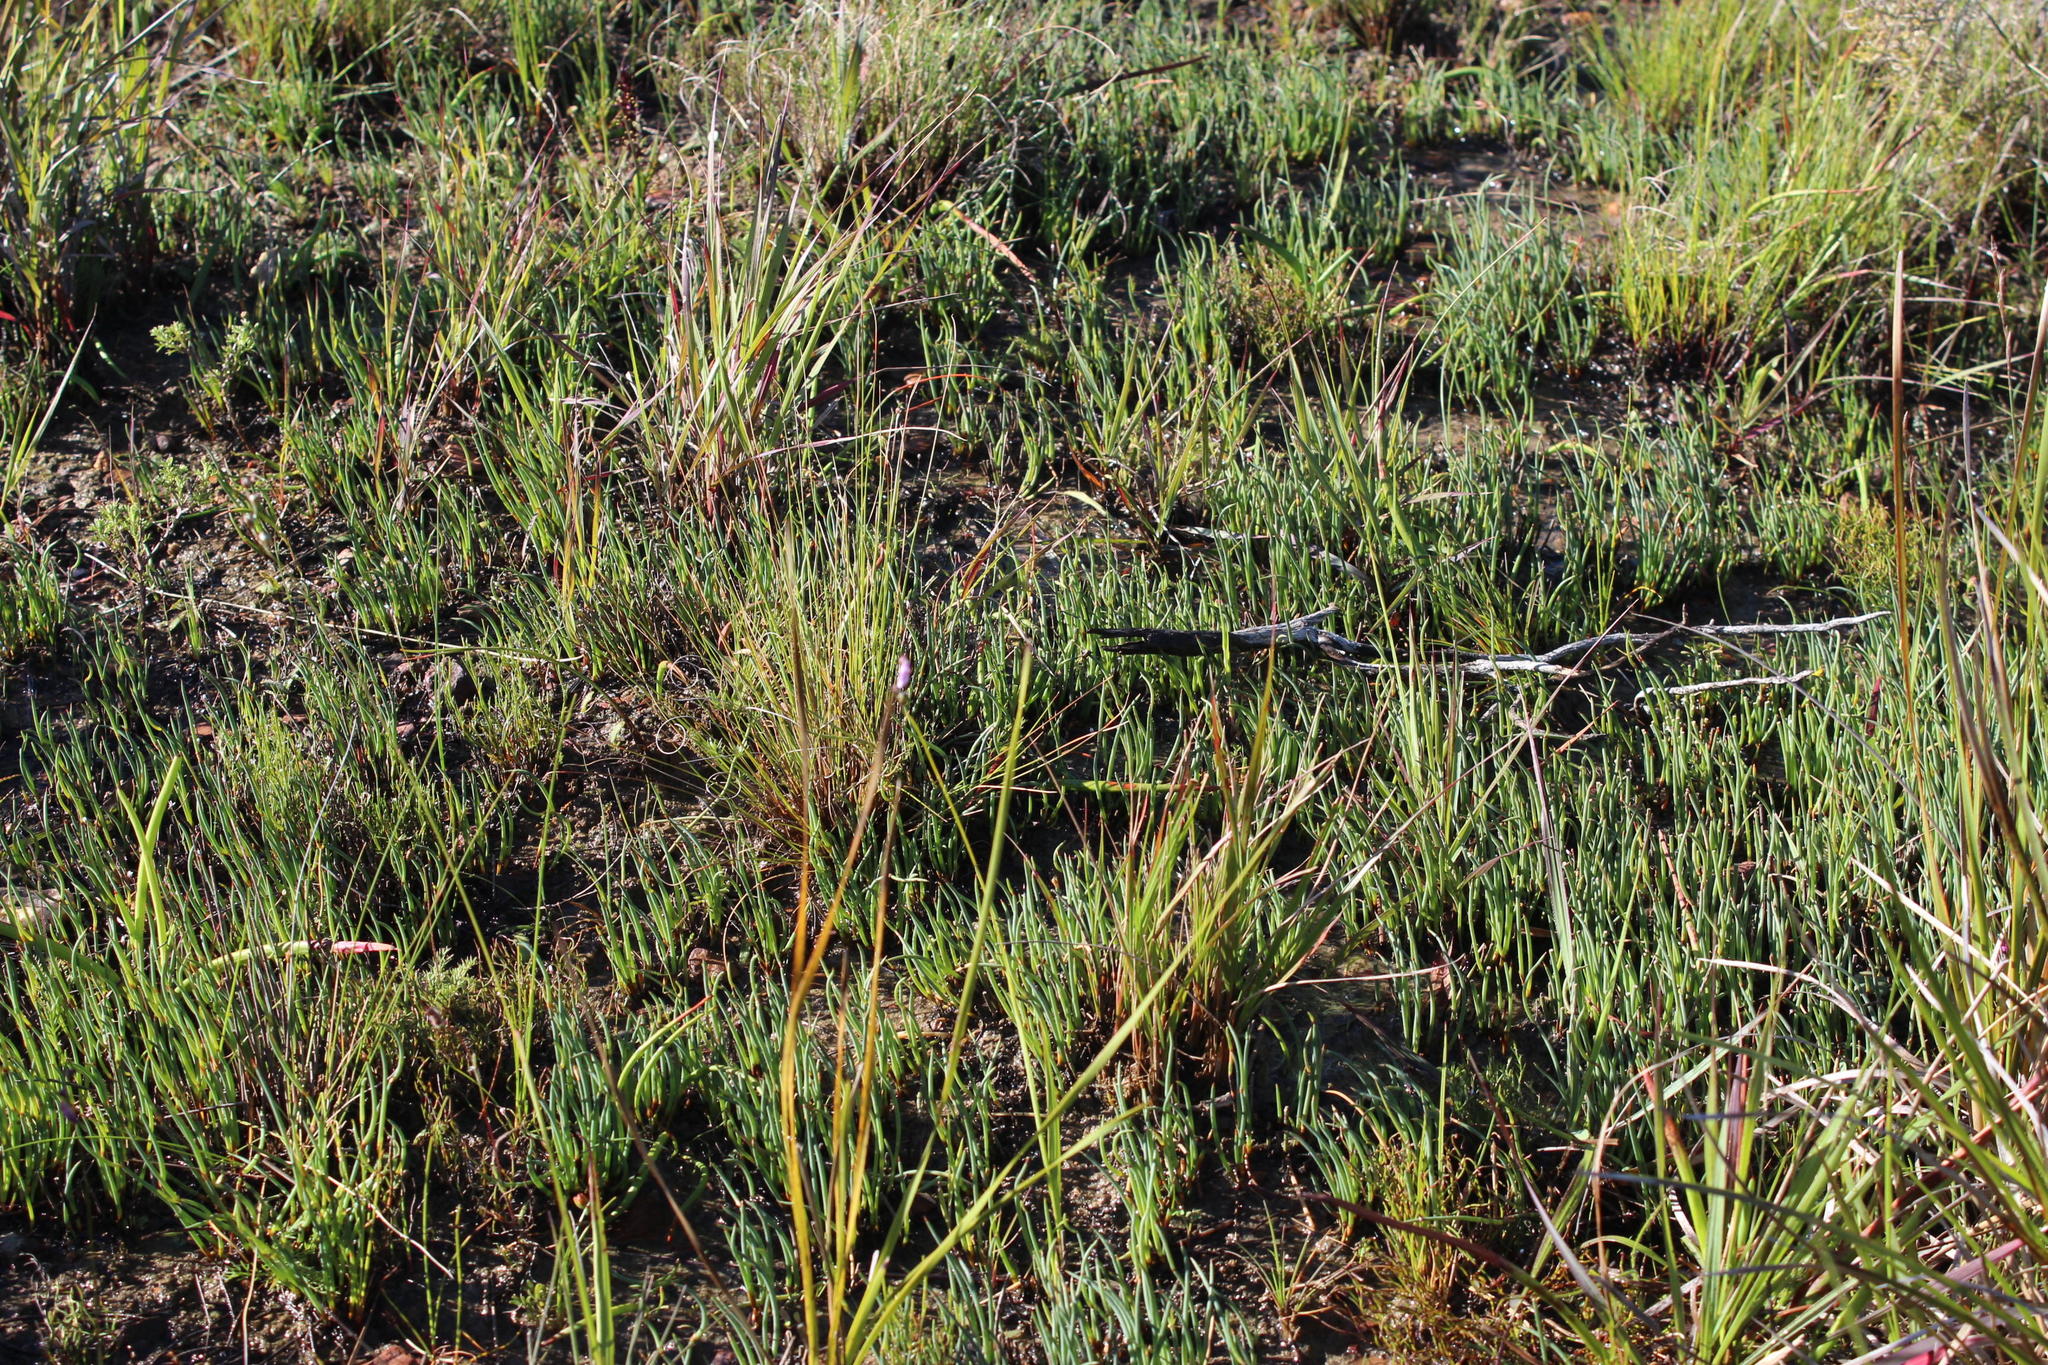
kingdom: Plantae
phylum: Tracheophyta
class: Liliopsida
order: Poales
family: Restionaceae
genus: Elegia
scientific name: Elegia squamosa
